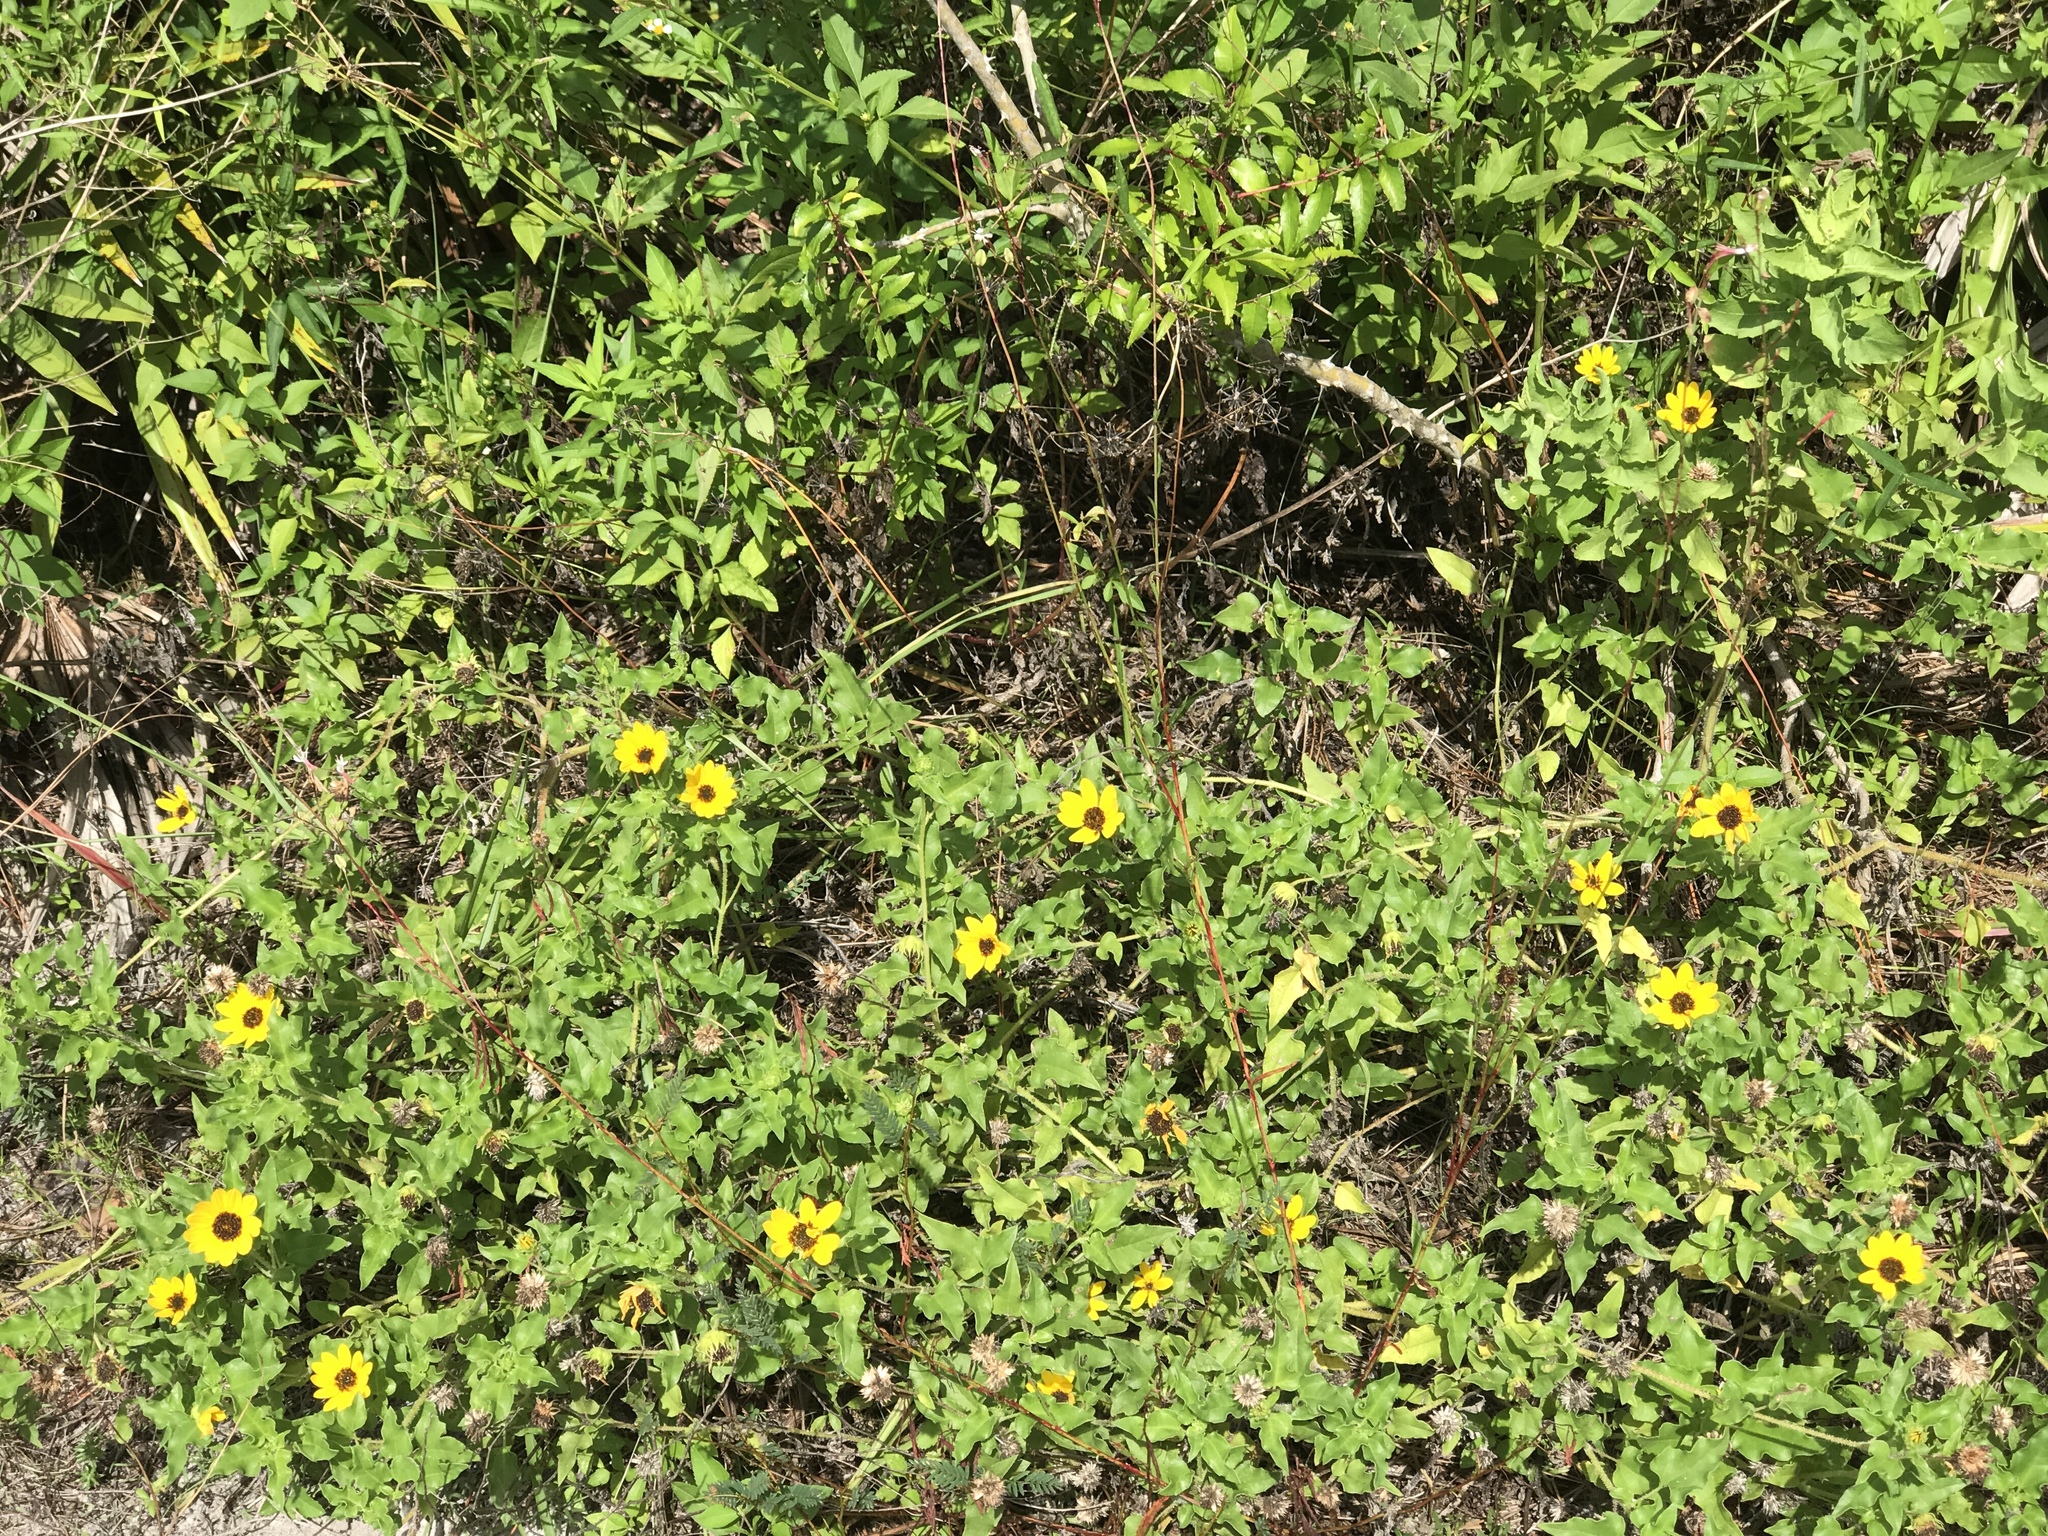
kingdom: Plantae
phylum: Tracheophyta
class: Magnoliopsida
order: Asterales
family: Asteraceae
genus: Helianthus
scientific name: Helianthus debilis
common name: Weak sunflower
